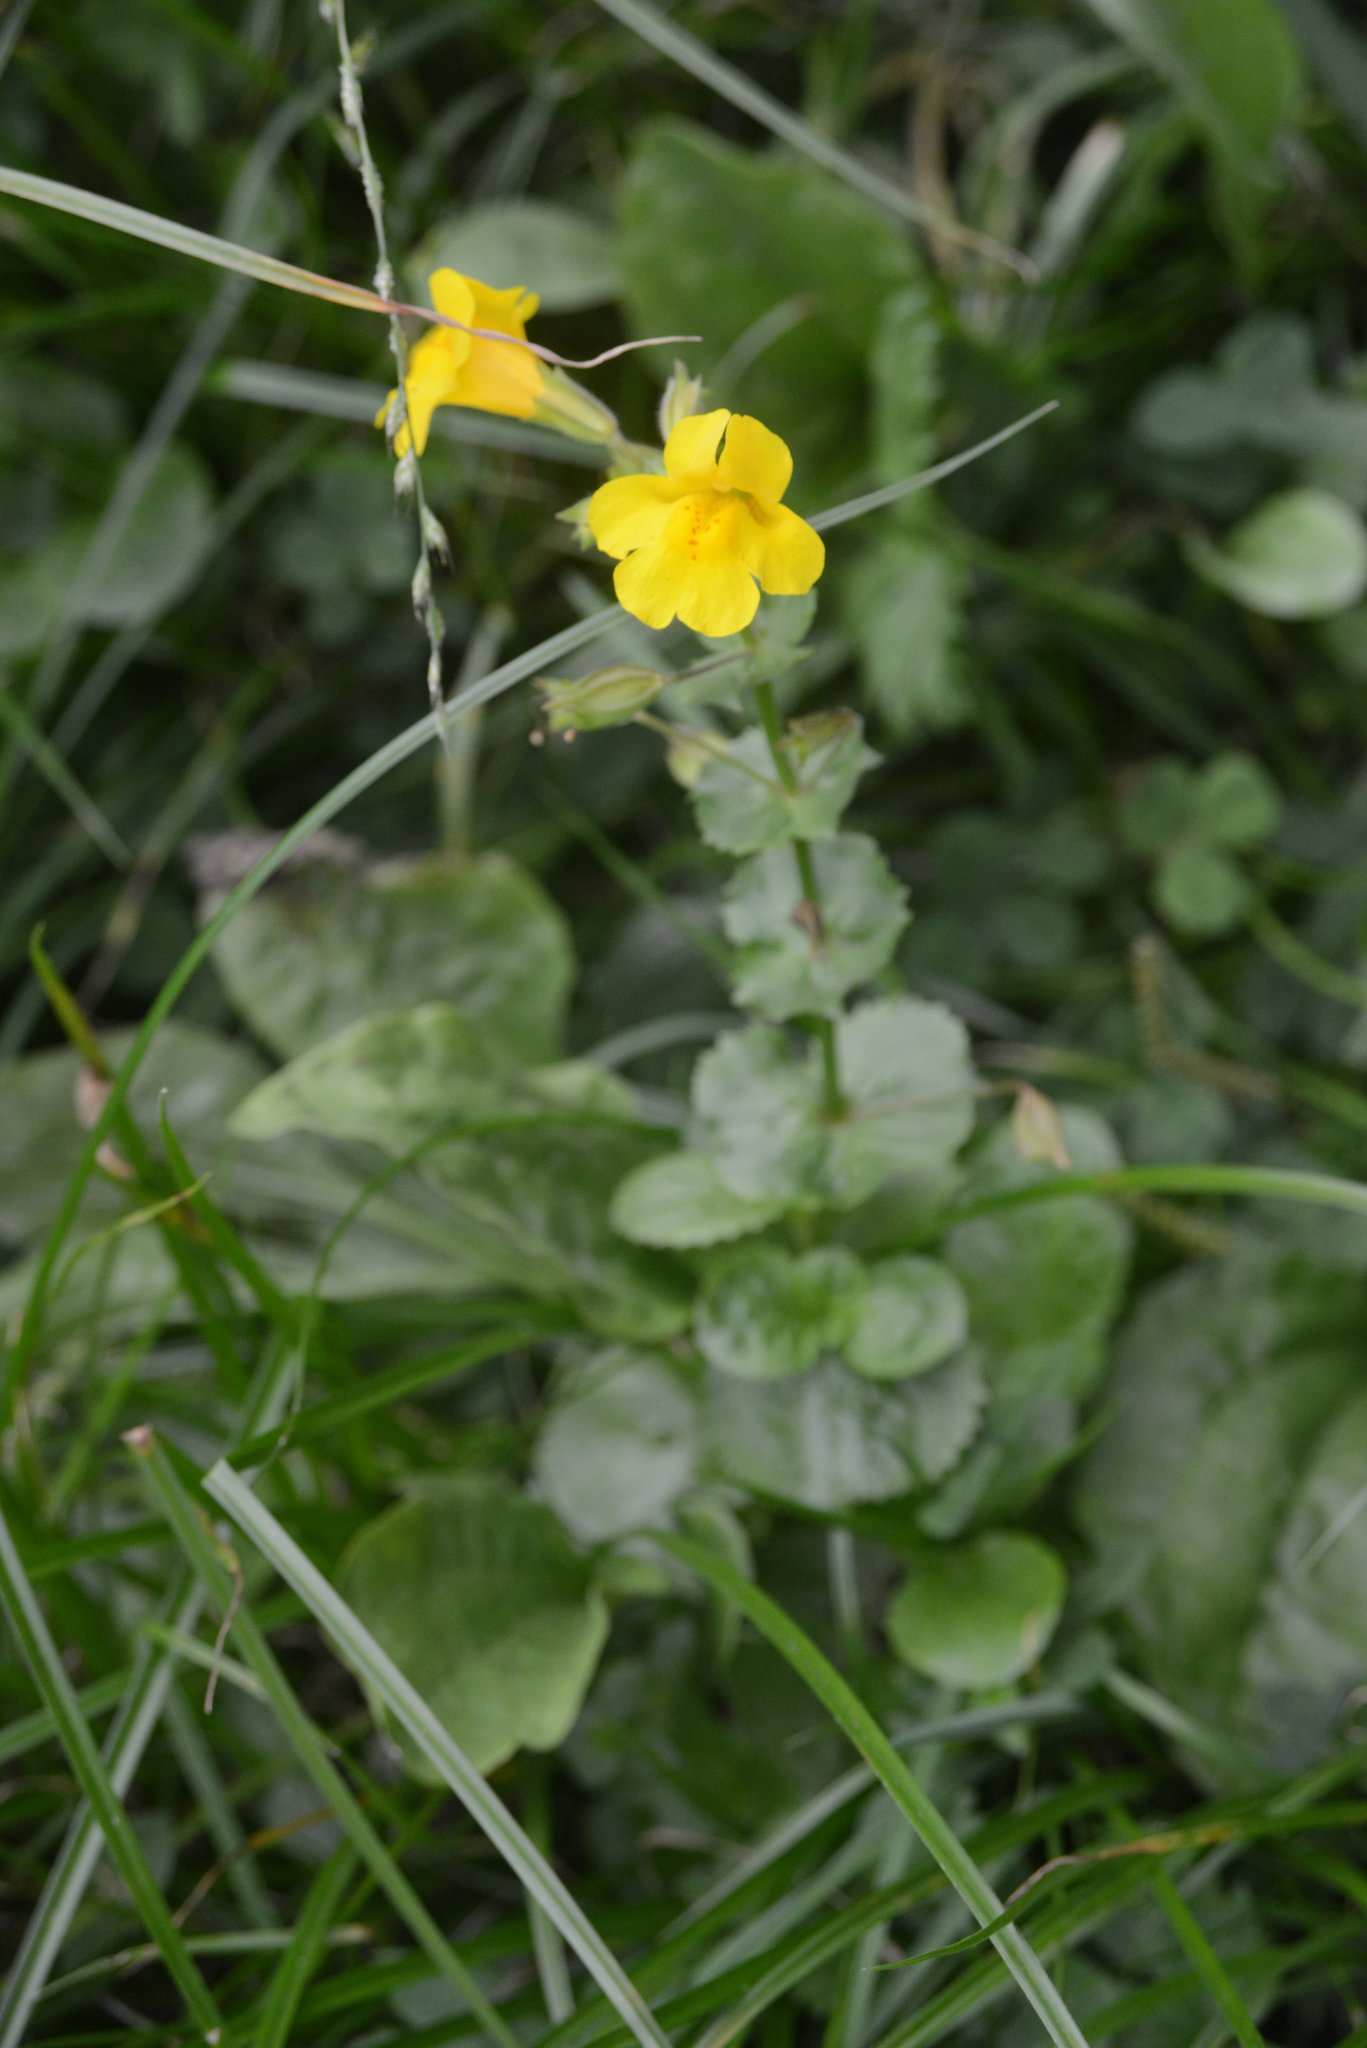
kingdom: Plantae
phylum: Tracheophyta
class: Magnoliopsida
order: Lamiales
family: Phrymaceae
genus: Erythranthe
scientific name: Erythranthe guttata
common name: Monkeyflower
